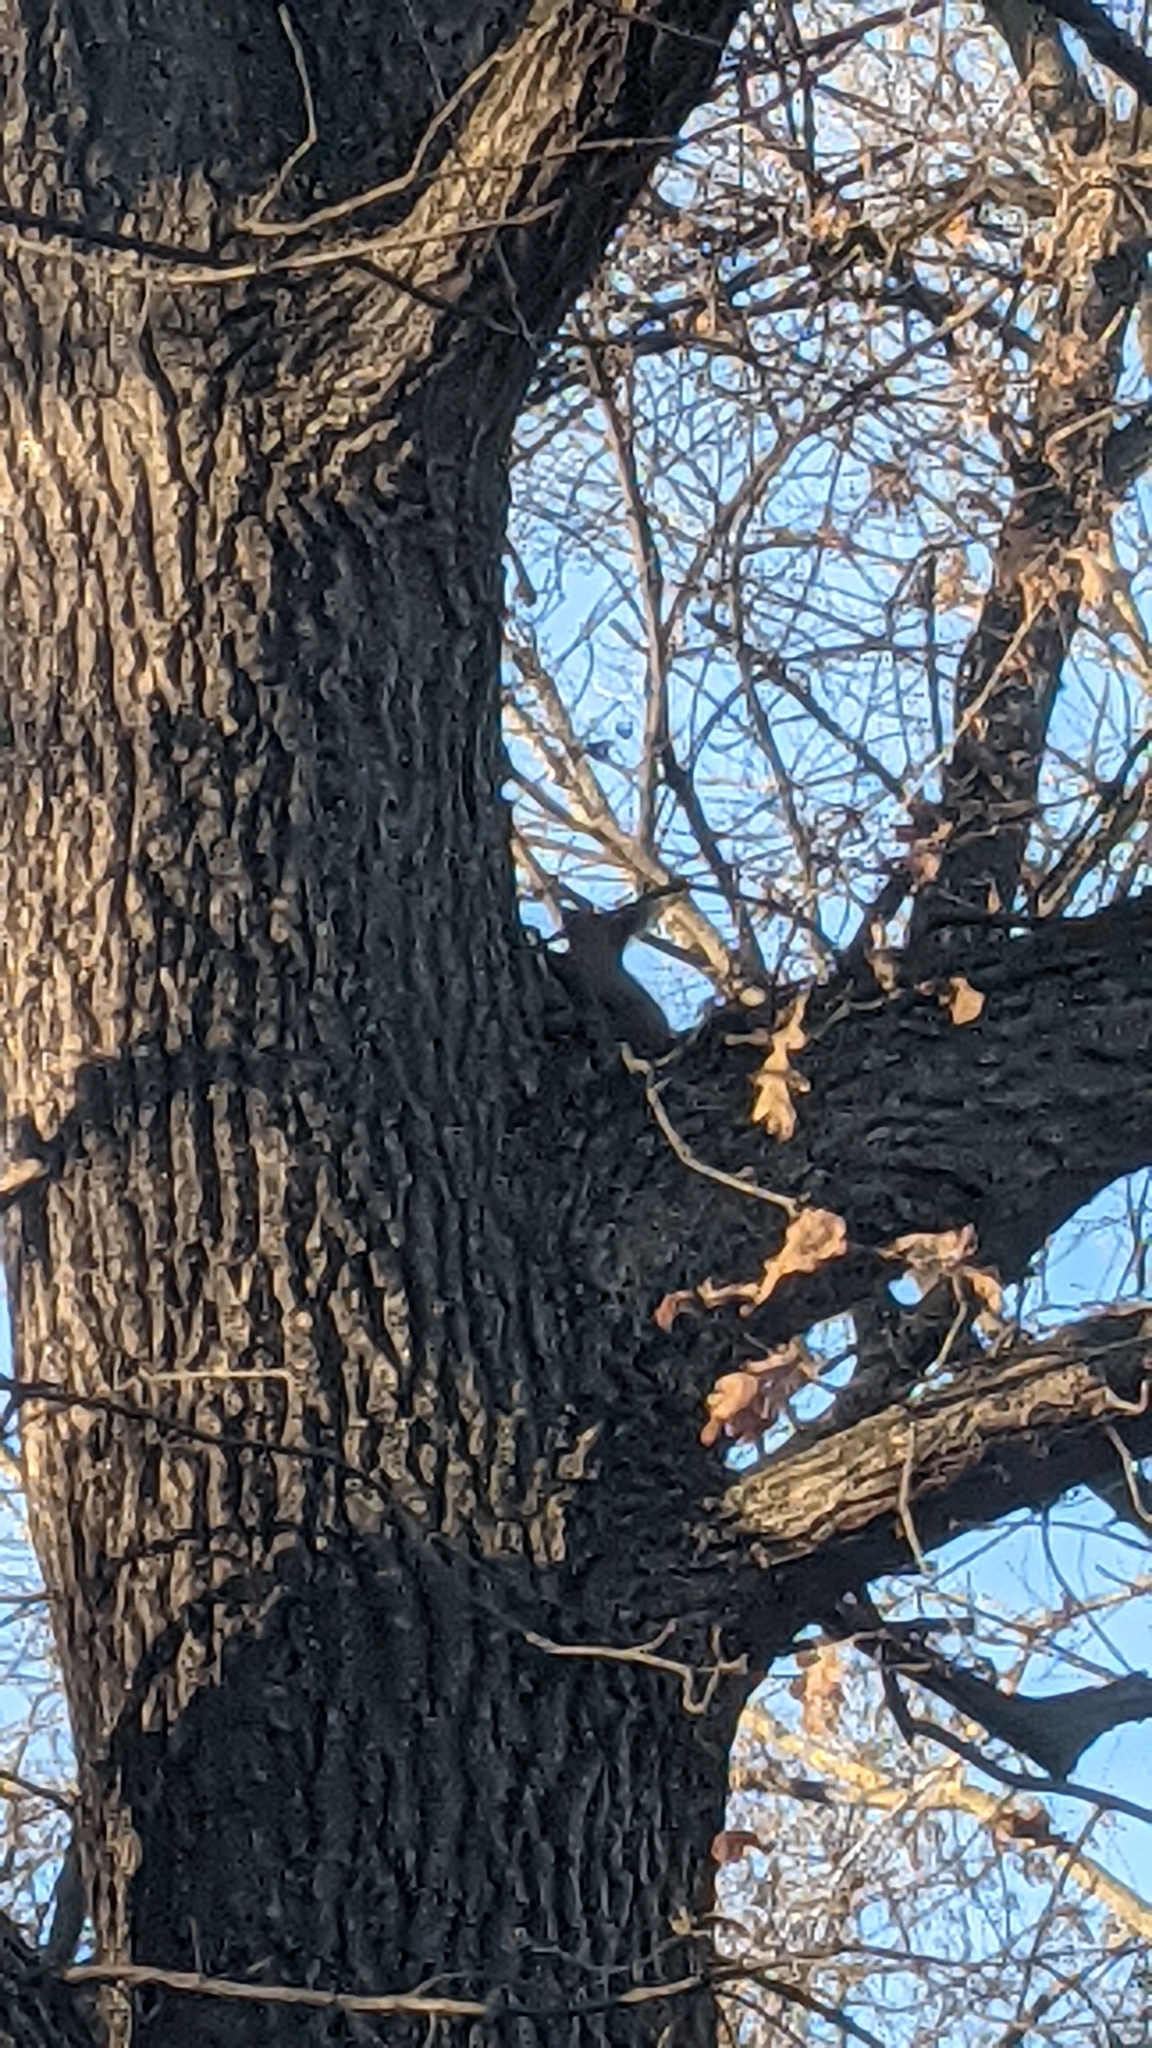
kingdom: Animalia
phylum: Chordata
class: Mammalia
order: Rodentia
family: Sciuridae
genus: Sciurus
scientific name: Sciurus vulgaris
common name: Eurasian red squirrel
